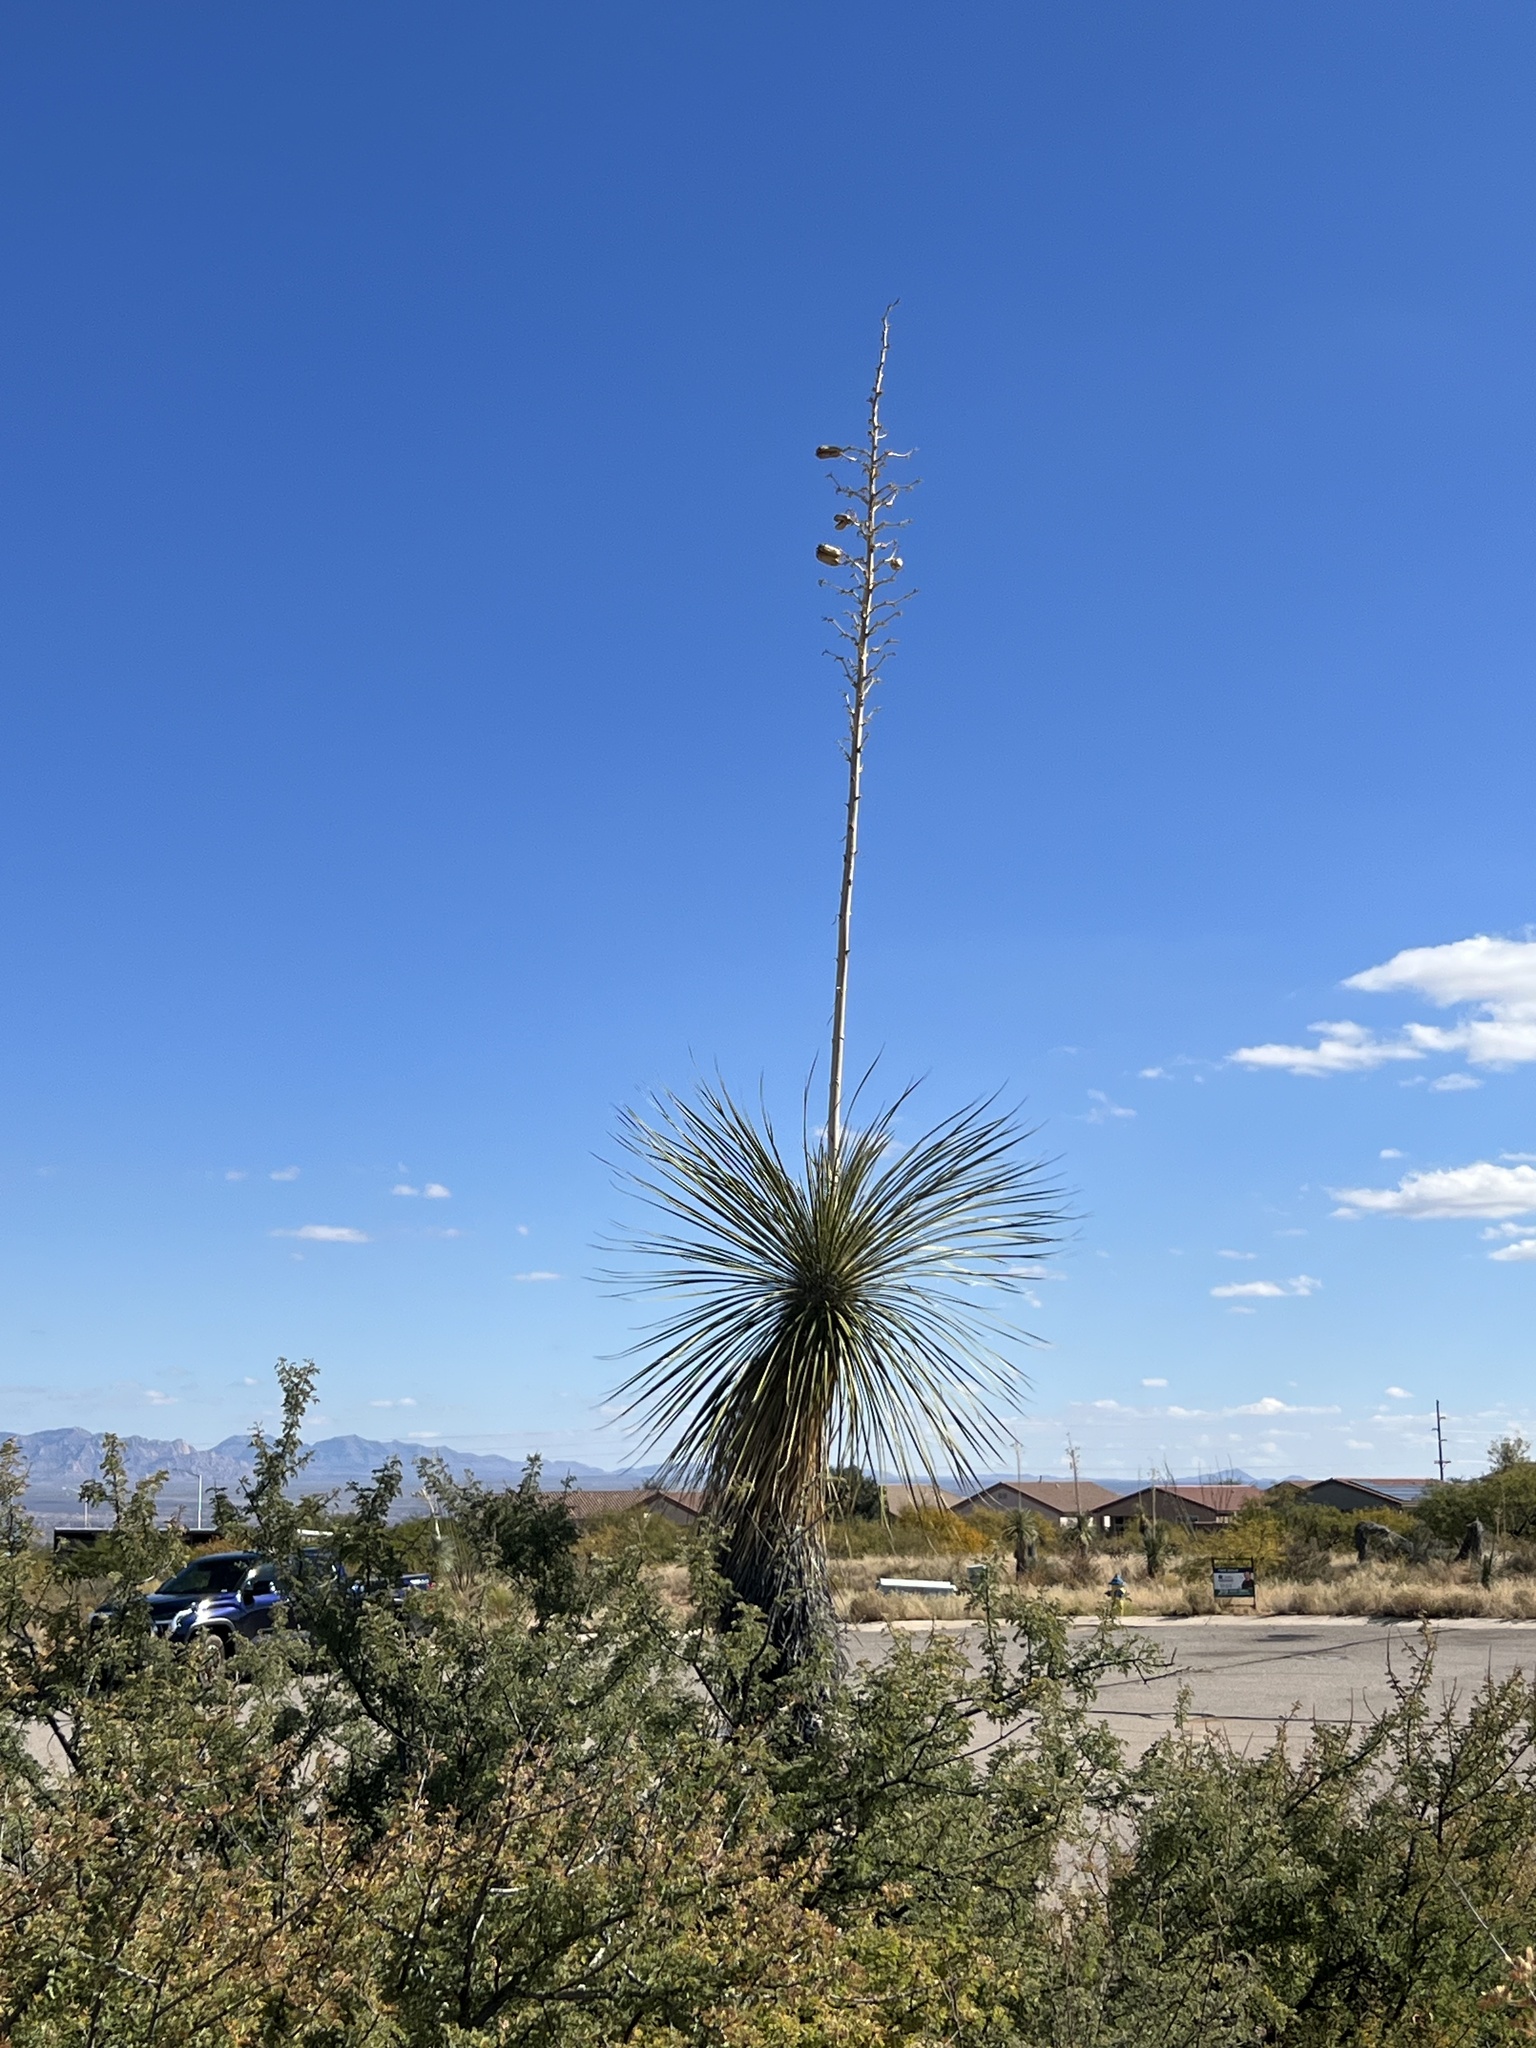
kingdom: Plantae
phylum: Tracheophyta
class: Liliopsida
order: Asparagales
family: Asparagaceae
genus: Yucca
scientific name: Yucca elata
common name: Palmella
